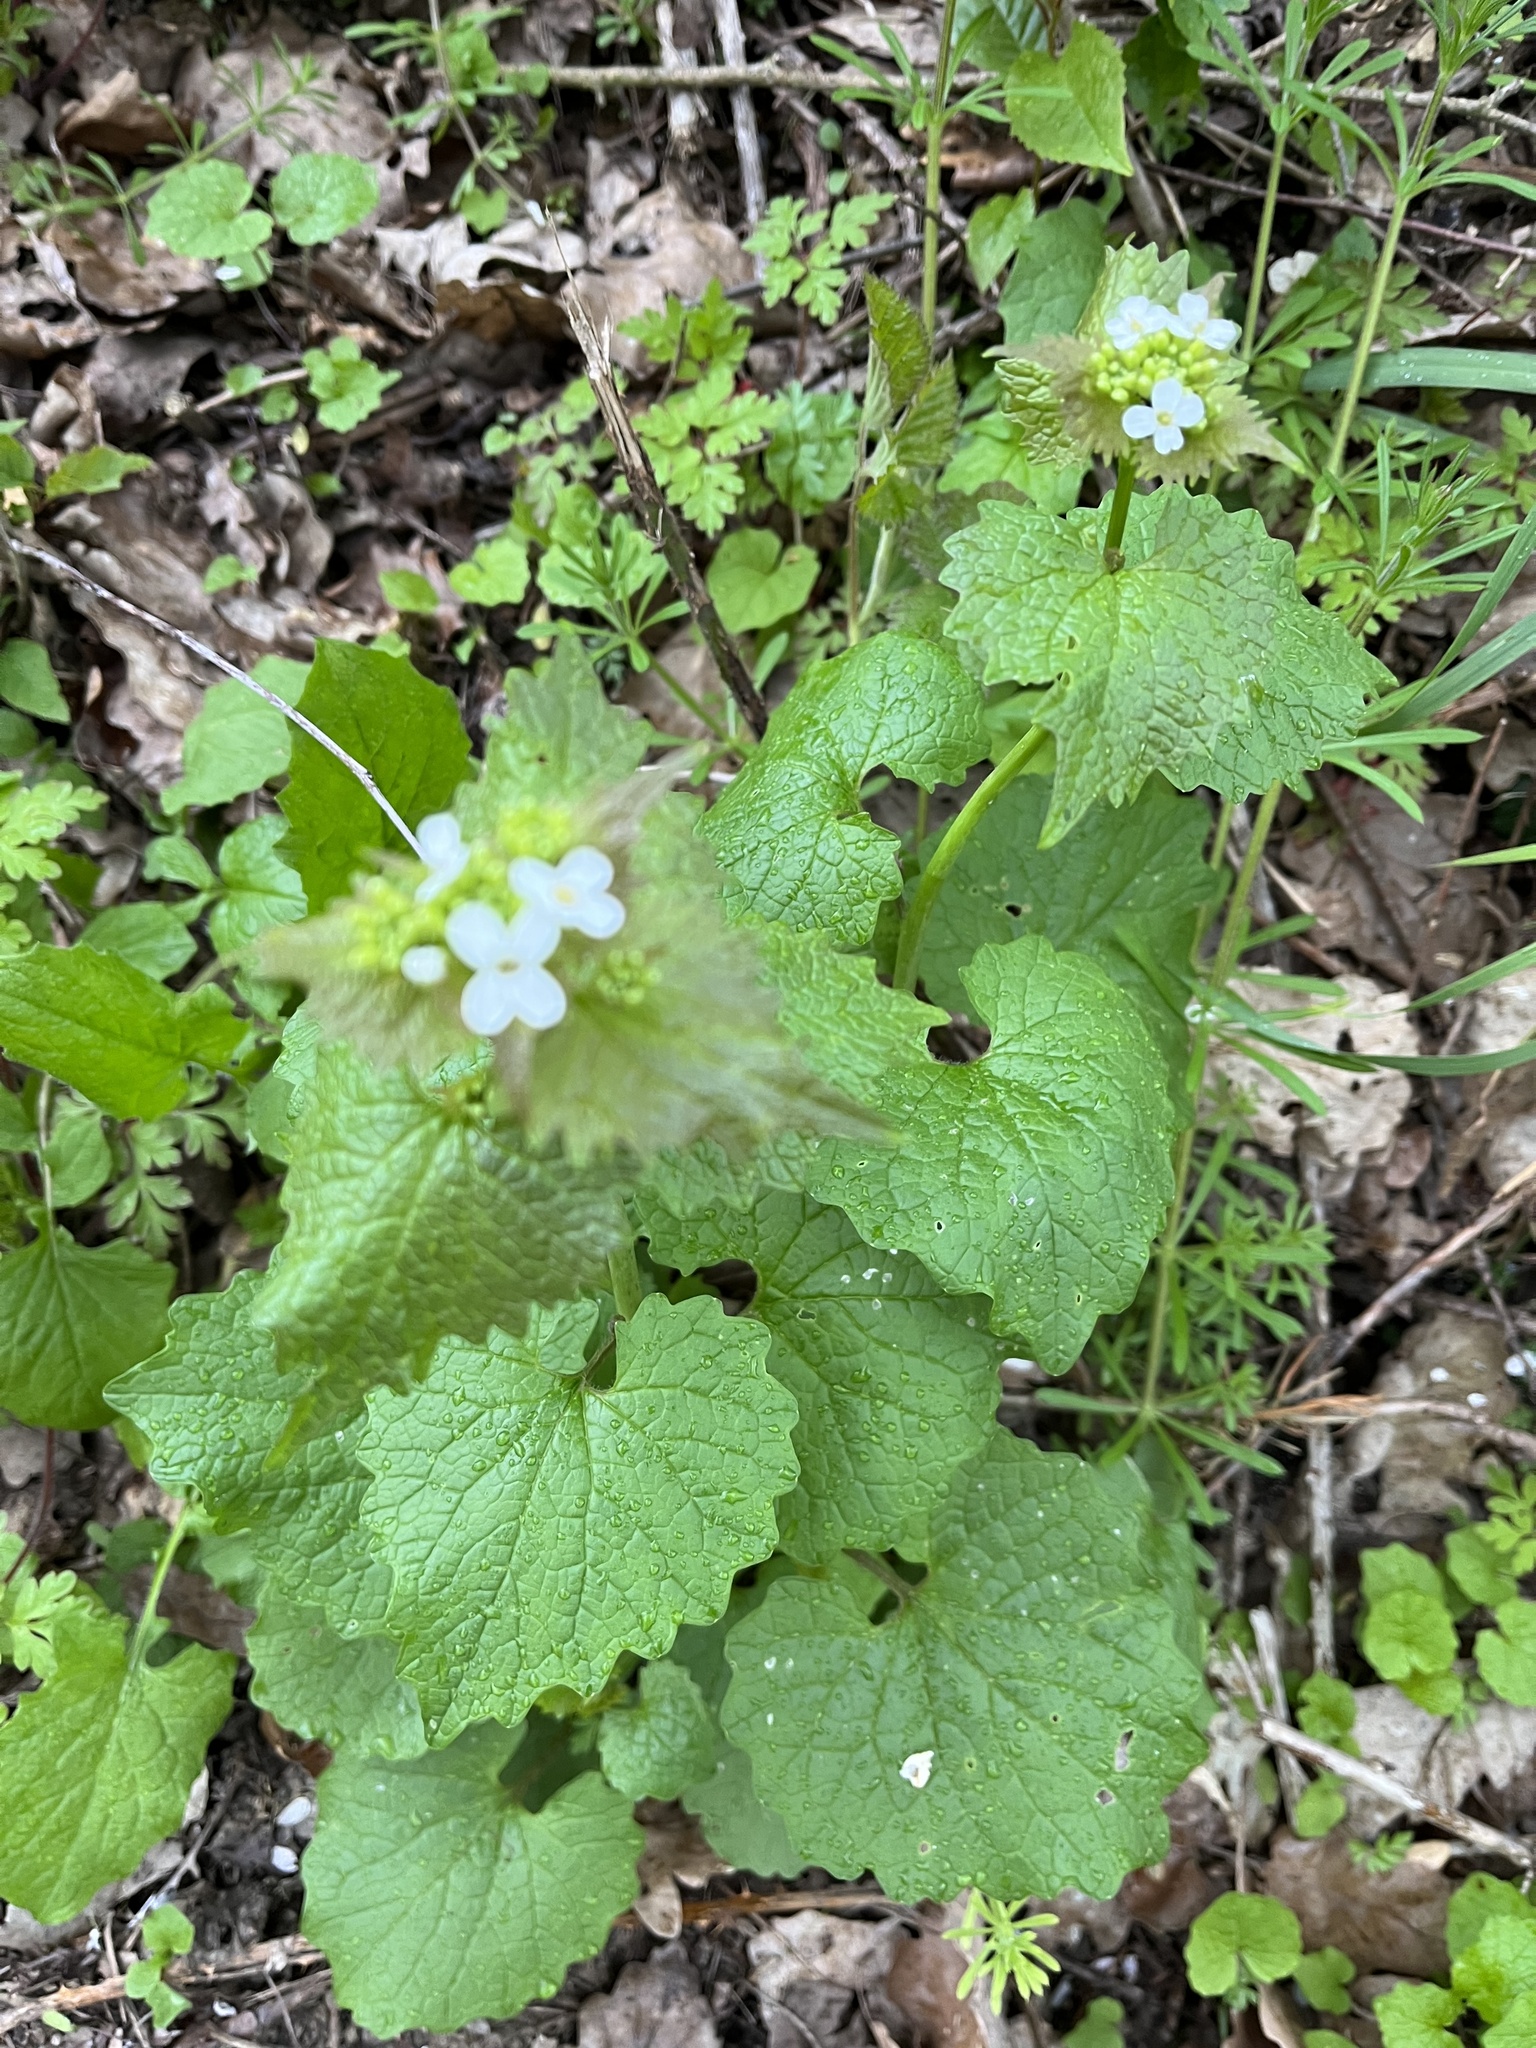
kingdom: Plantae
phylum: Tracheophyta
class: Magnoliopsida
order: Brassicales
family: Brassicaceae
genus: Alliaria
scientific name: Alliaria petiolata
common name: Garlic mustard
